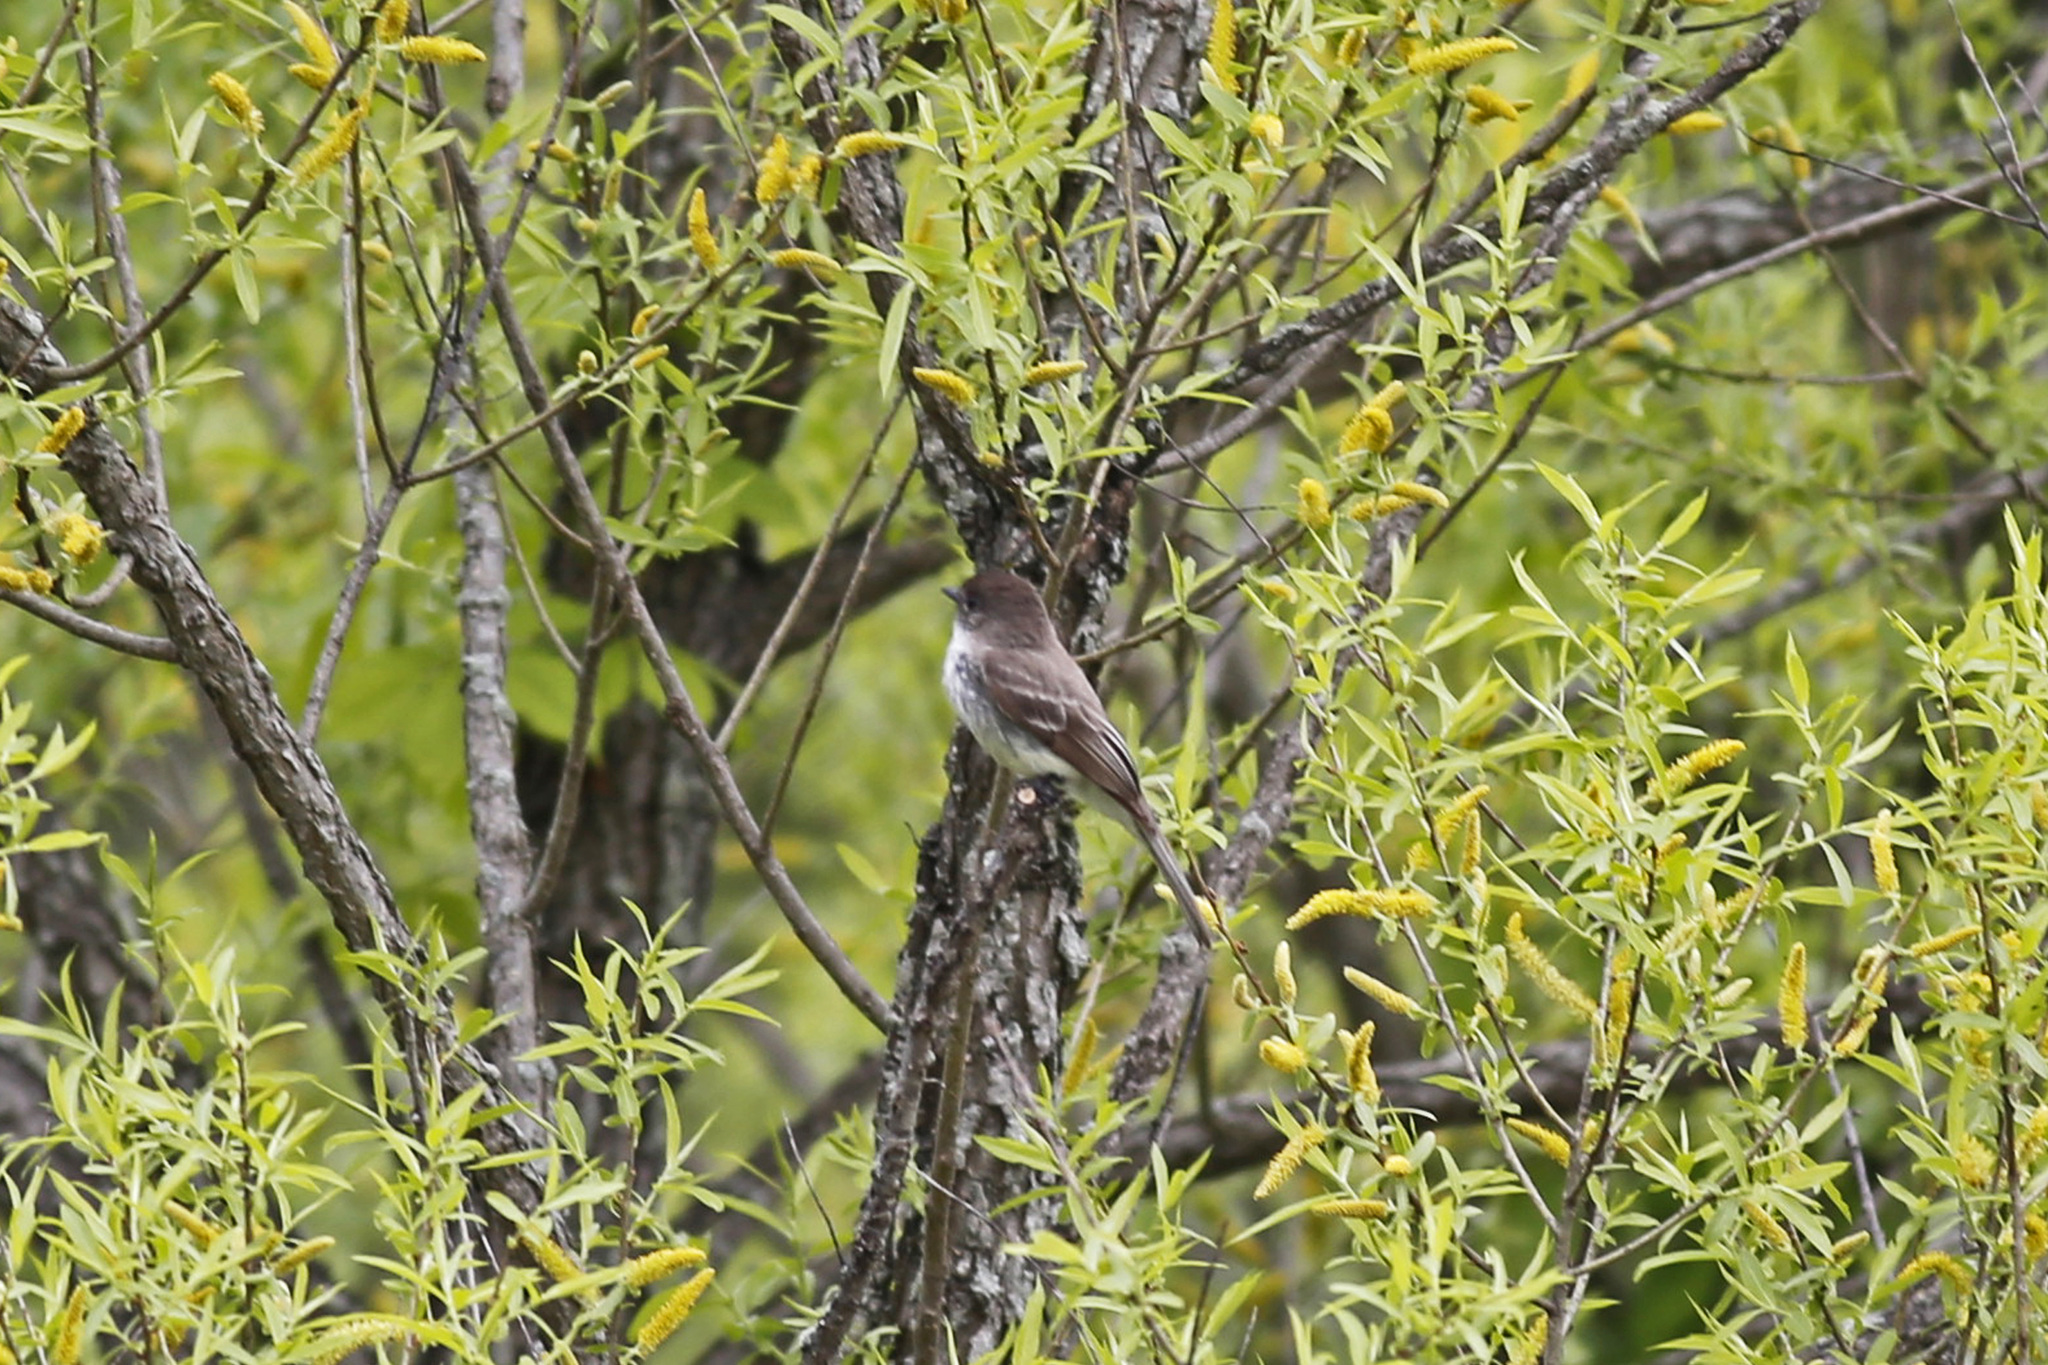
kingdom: Animalia
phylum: Chordata
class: Aves
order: Passeriformes
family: Tyrannidae
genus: Sayornis
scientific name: Sayornis phoebe
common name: Eastern phoebe
